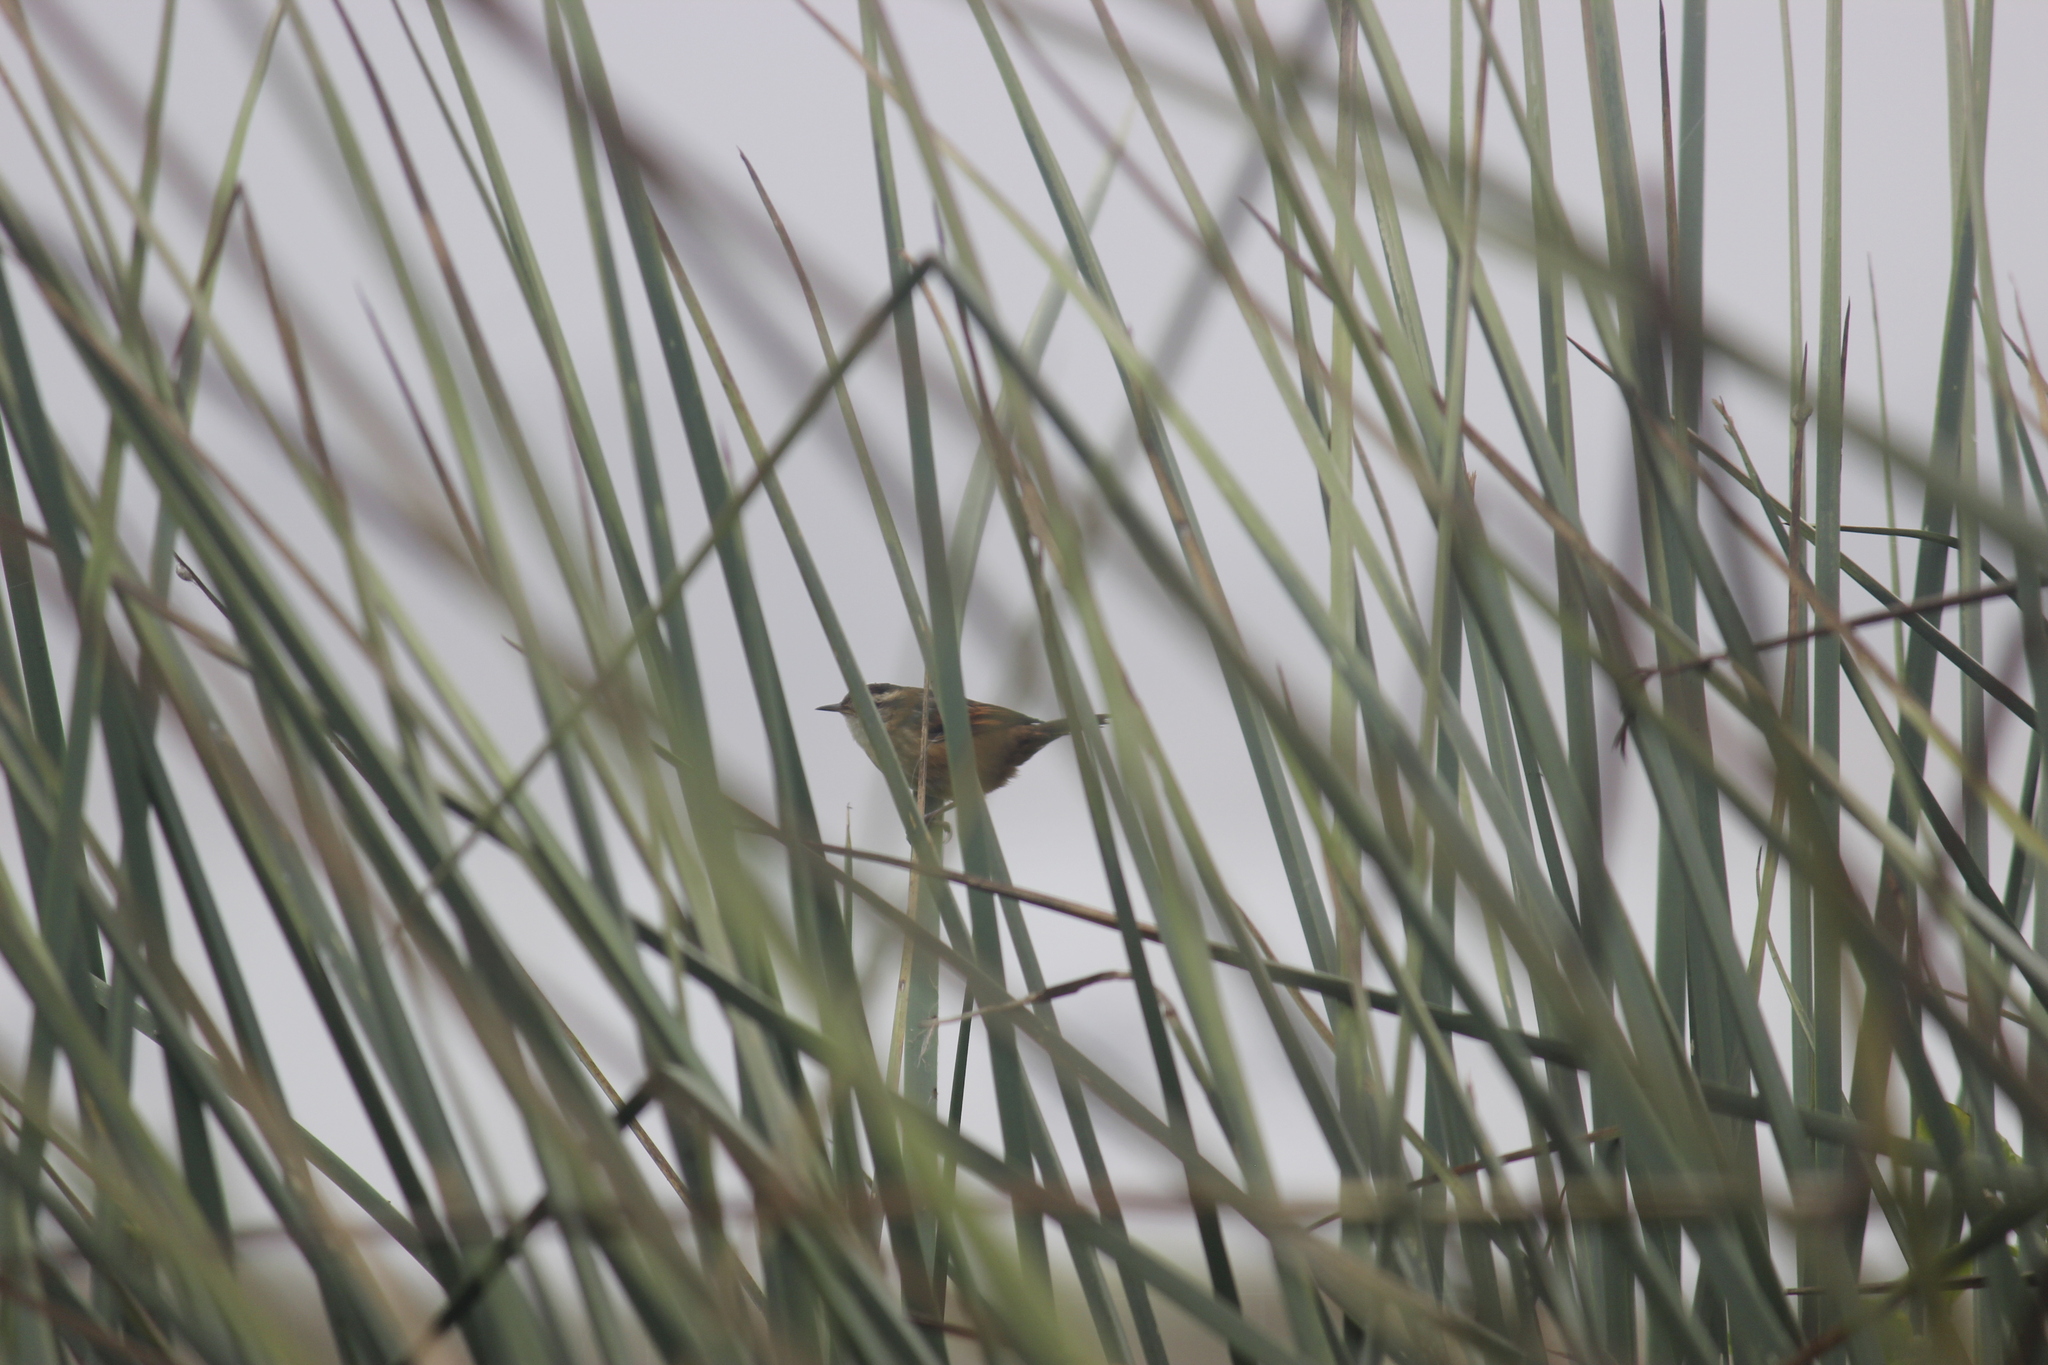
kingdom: Animalia
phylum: Chordata
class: Aves
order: Passeriformes
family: Furnariidae
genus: Phleocryptes
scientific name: Phleocryptes melanops
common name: Wren-like rushbird
